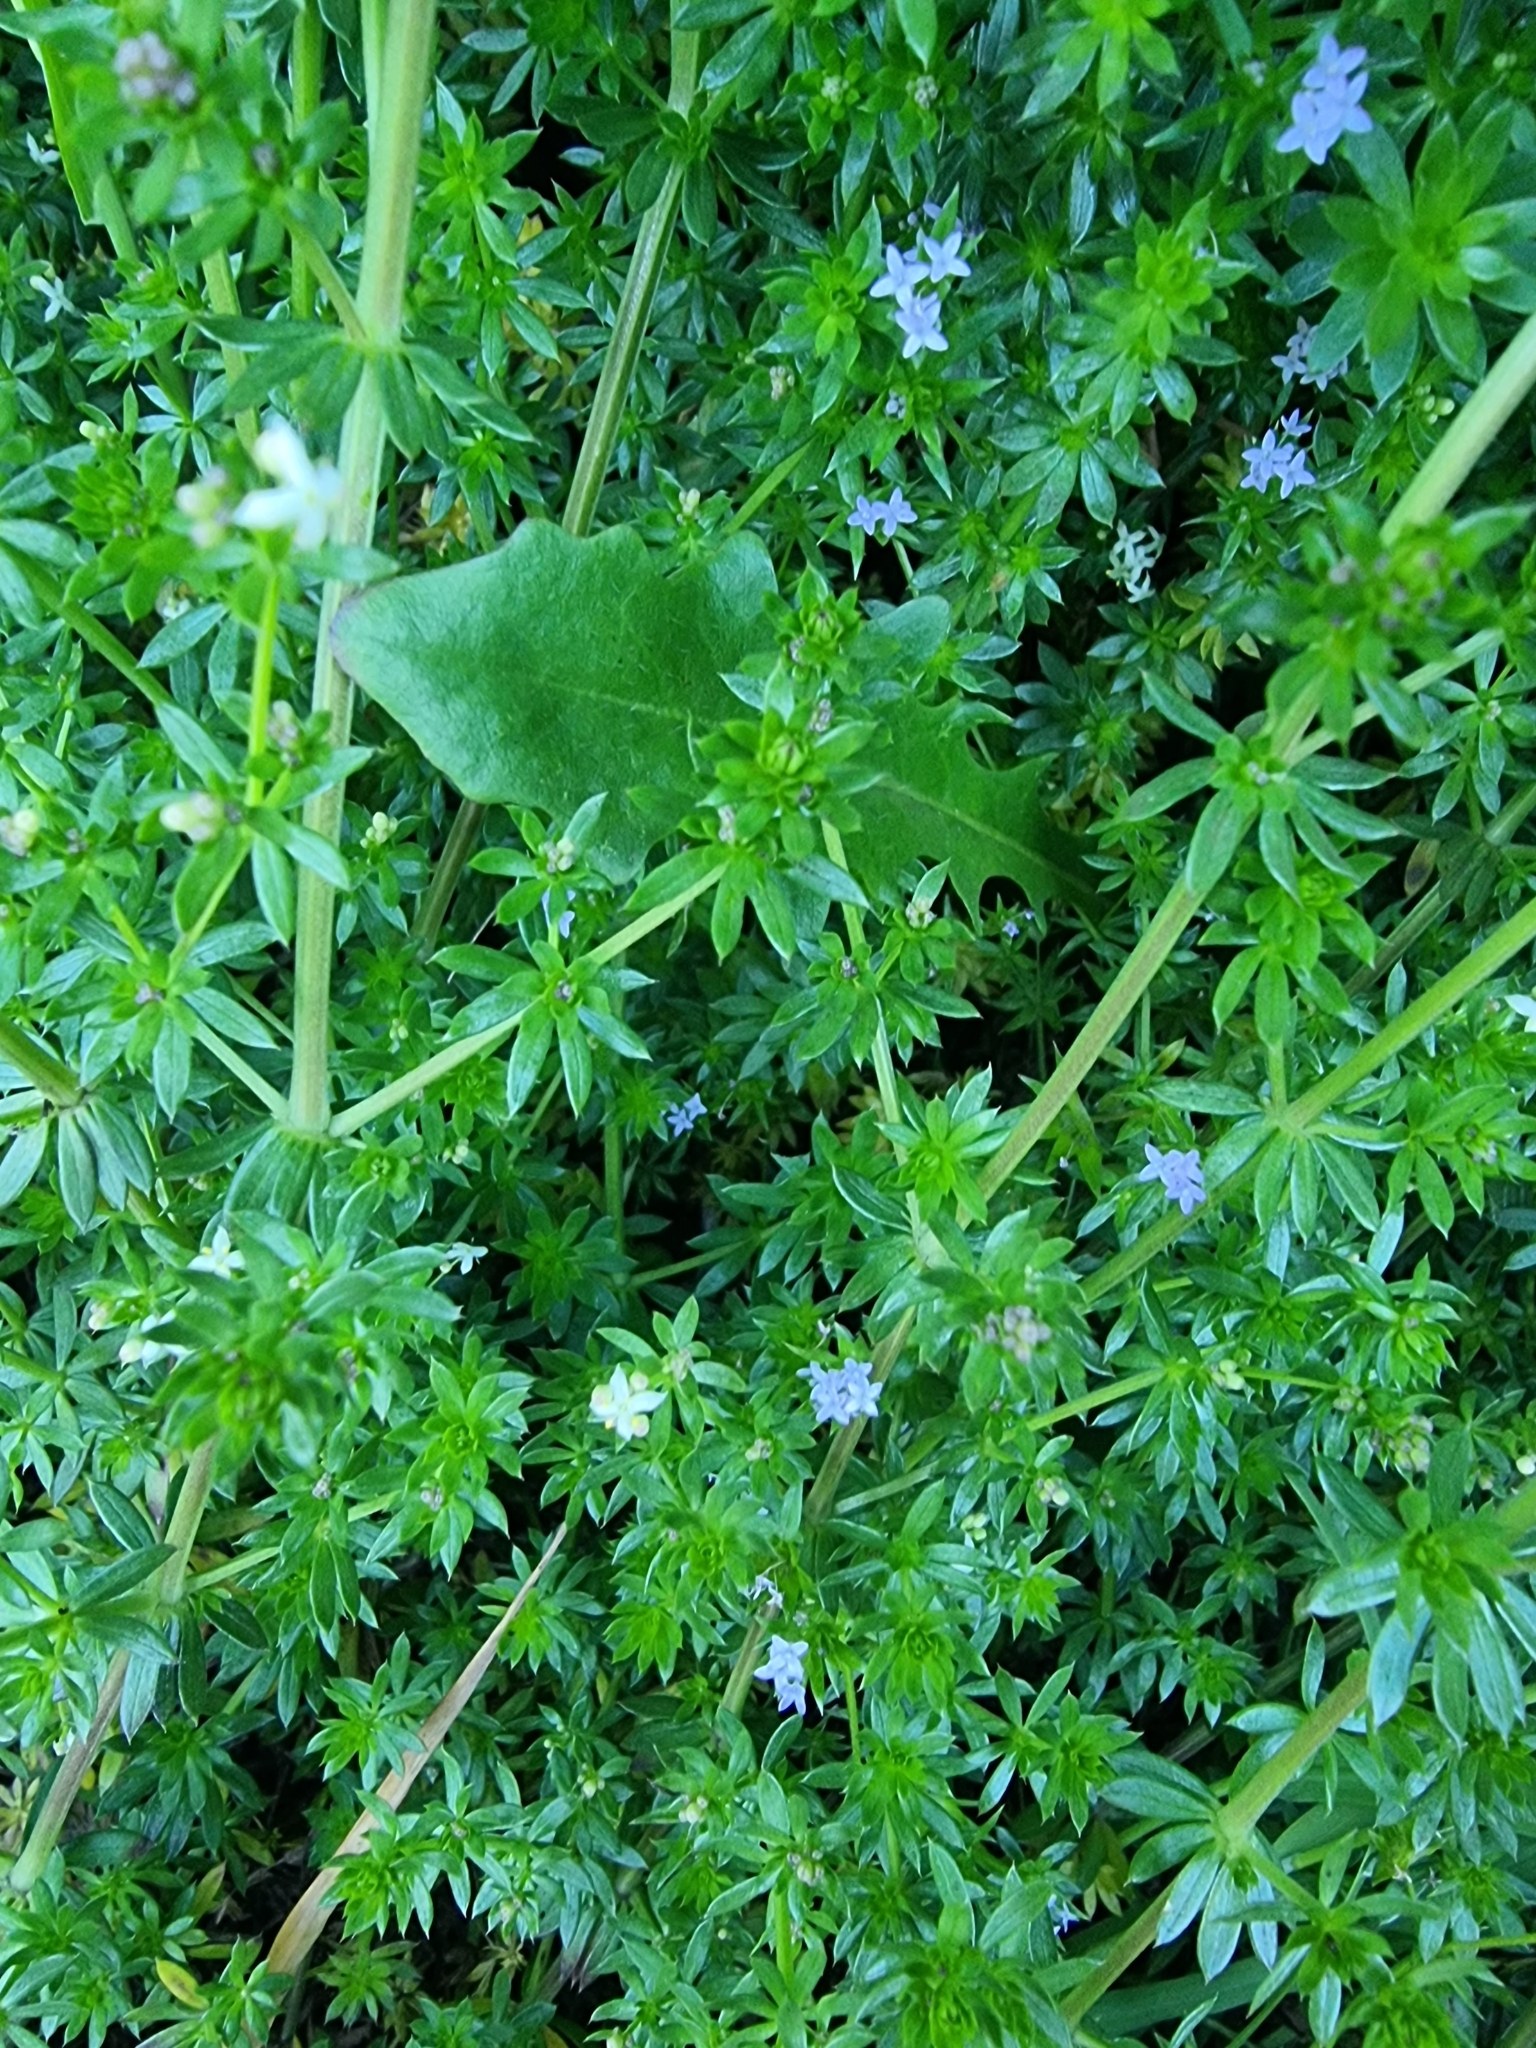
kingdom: Plantae
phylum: Tracheophyta
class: Magnoliopsida
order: Gentianales
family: Rubiaceae
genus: Galium
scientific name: Galium productum
